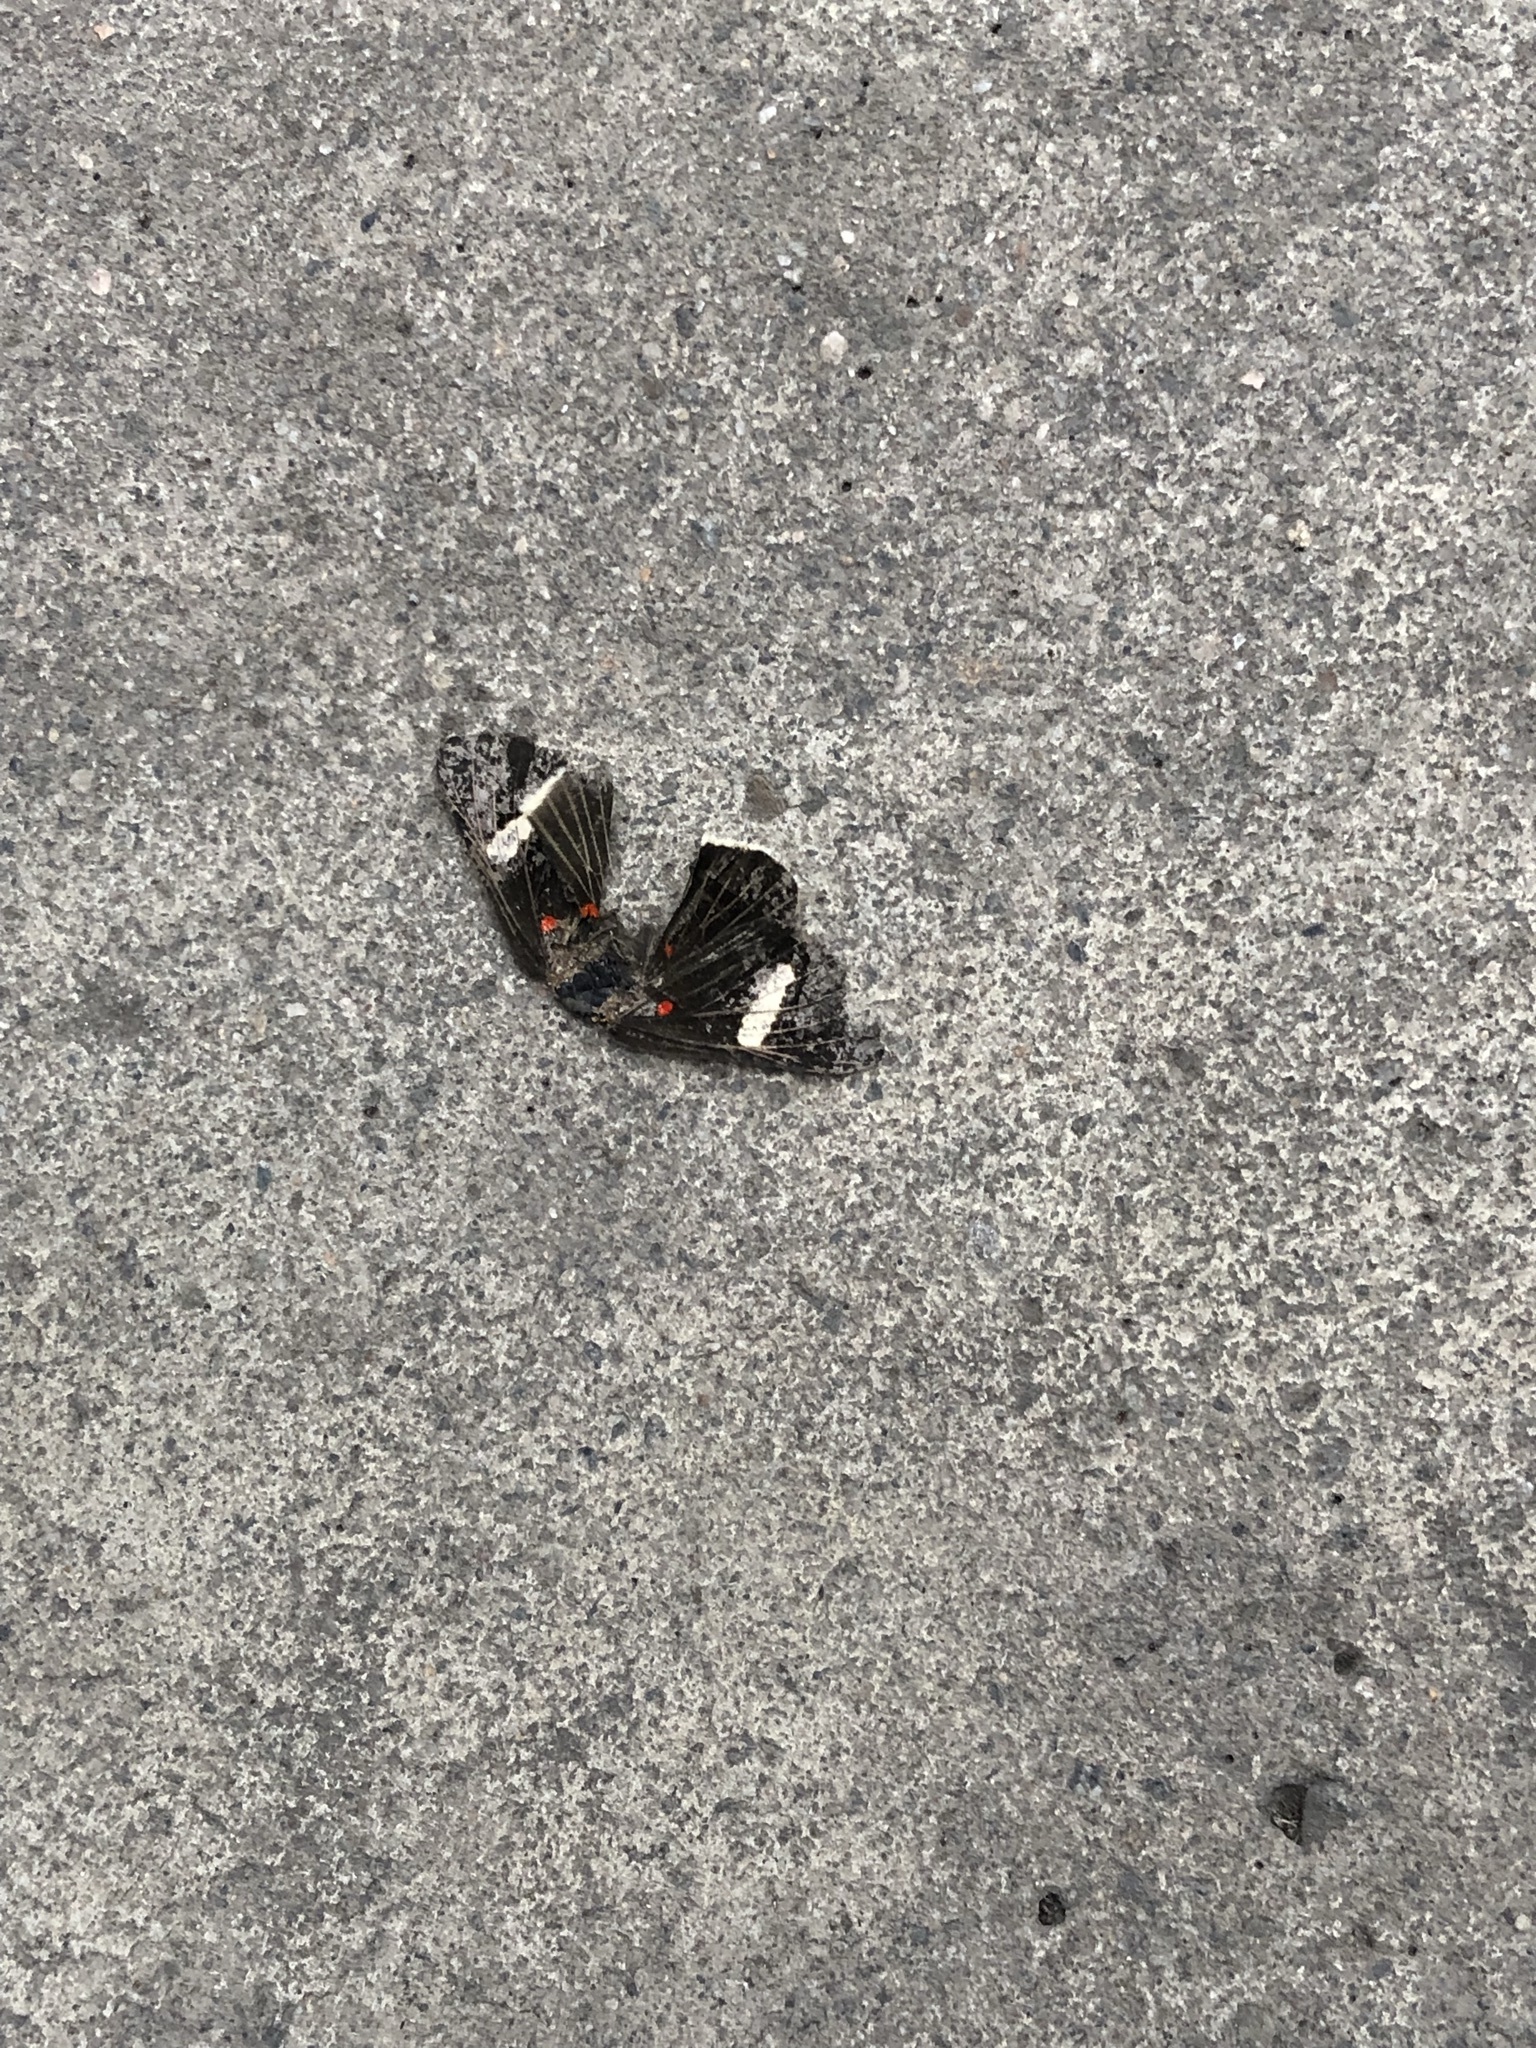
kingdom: Animalia
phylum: Arthropoda
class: Insecta
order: Lepidoptera
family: Lycaenidae
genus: Melanis
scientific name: Melanis
